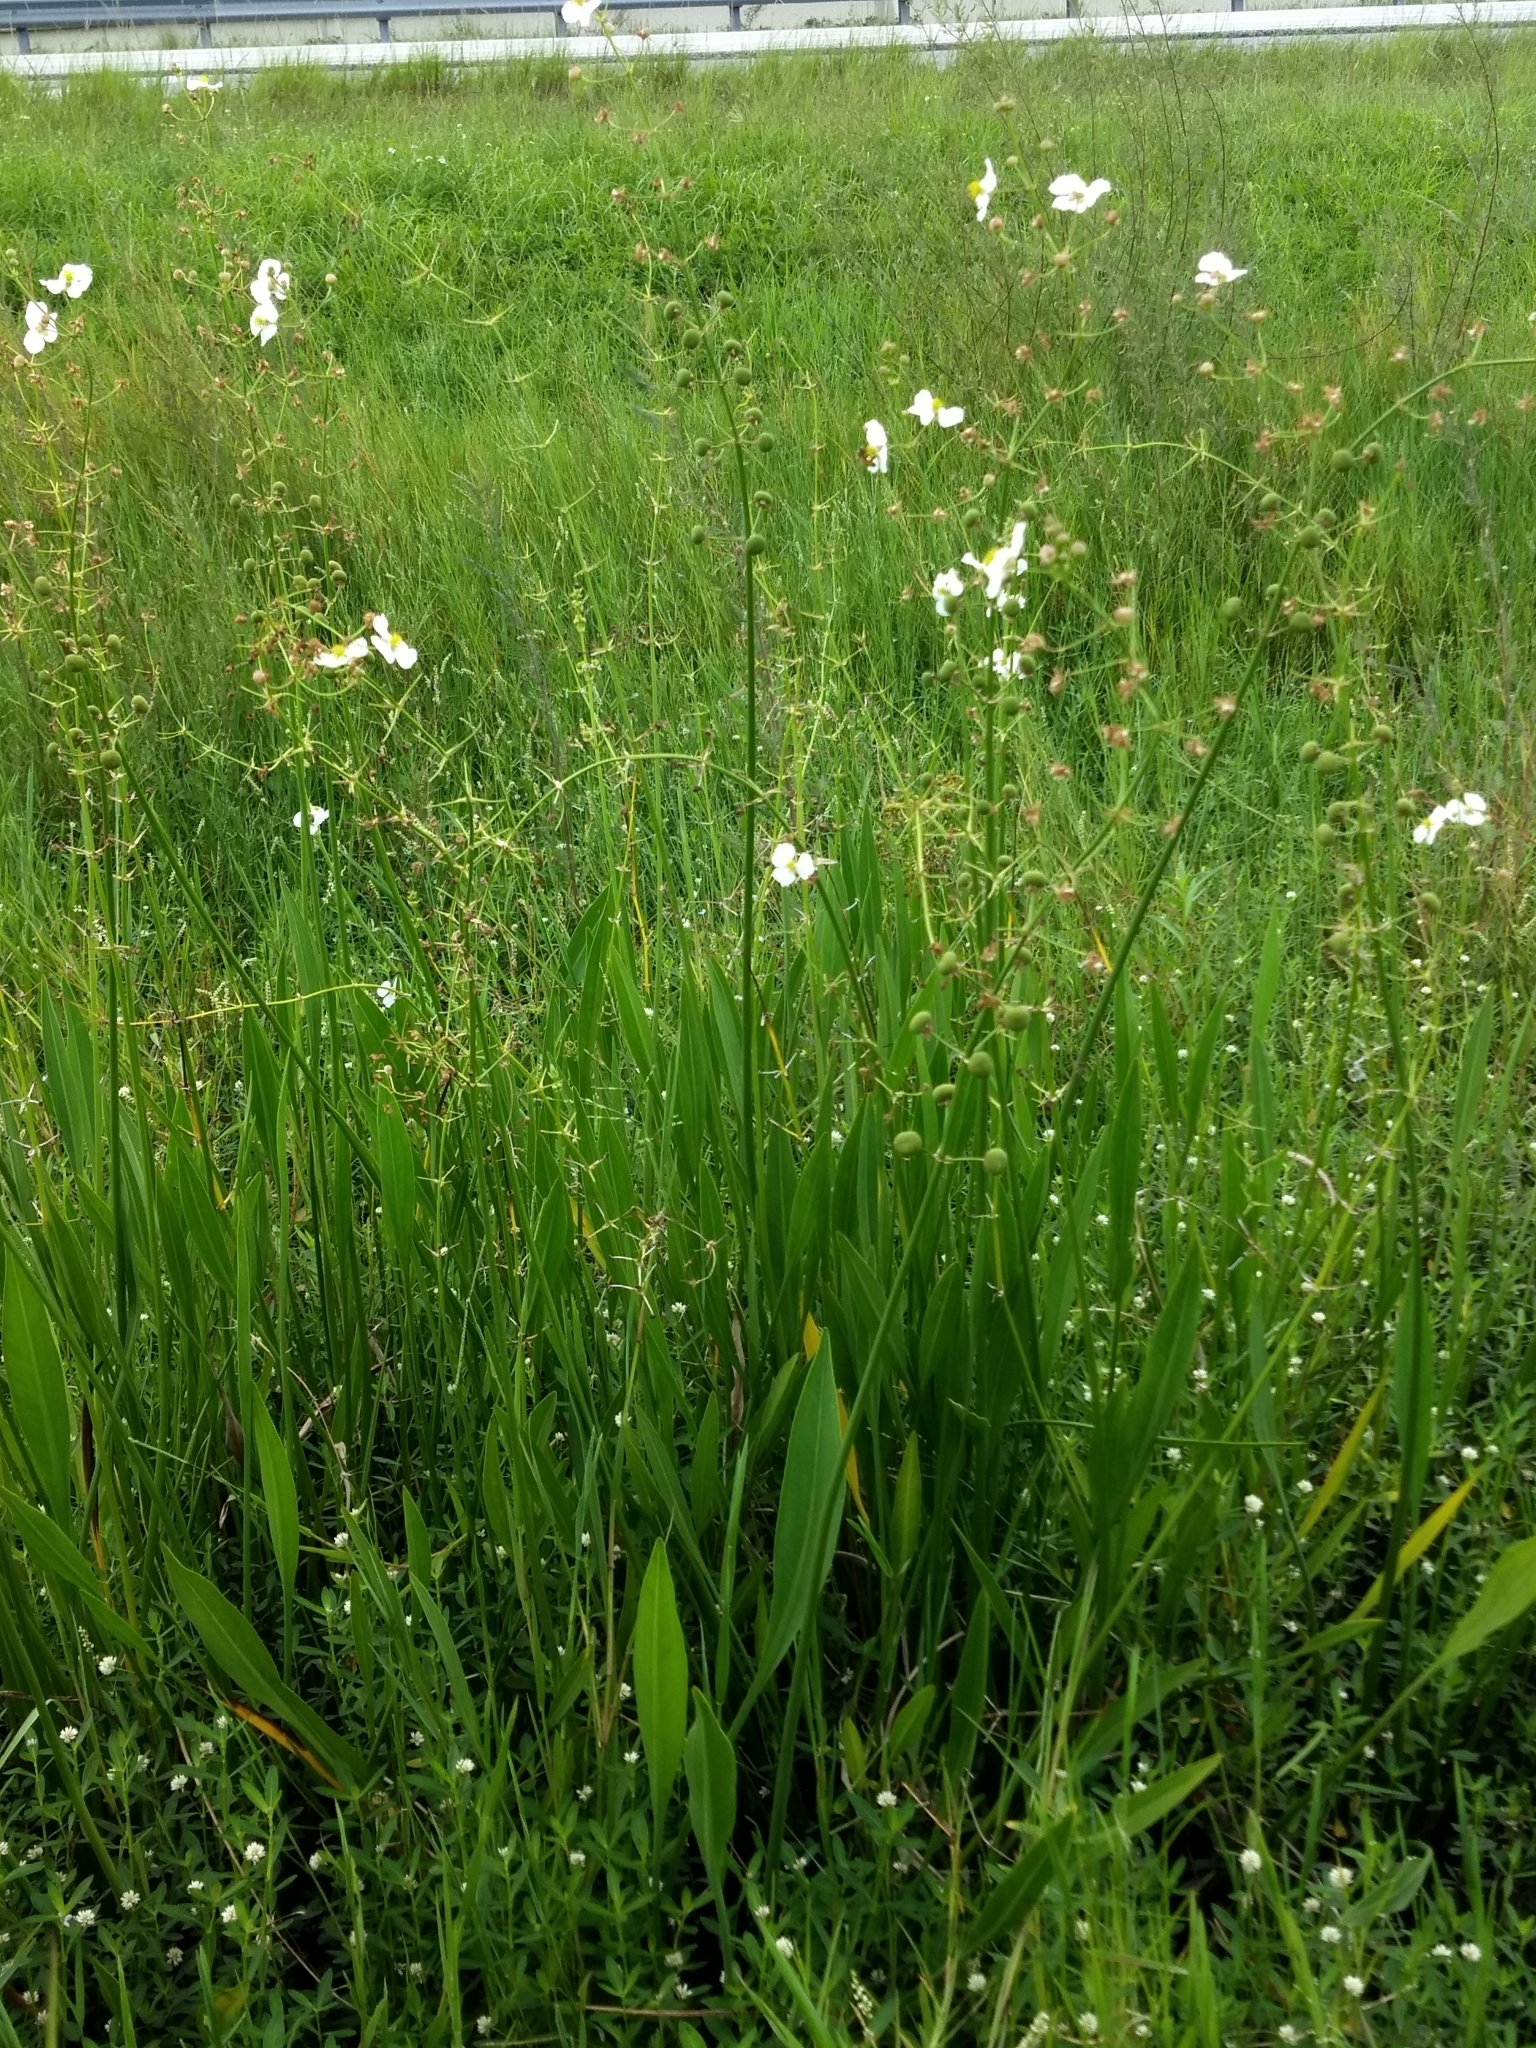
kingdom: Plantae
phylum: Tracheophyta
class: Liliopsida
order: Alismatales
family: Alismataceae
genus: Sagittaria
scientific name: Sagittaria lancifolia
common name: Lance-leaf arrowhead
